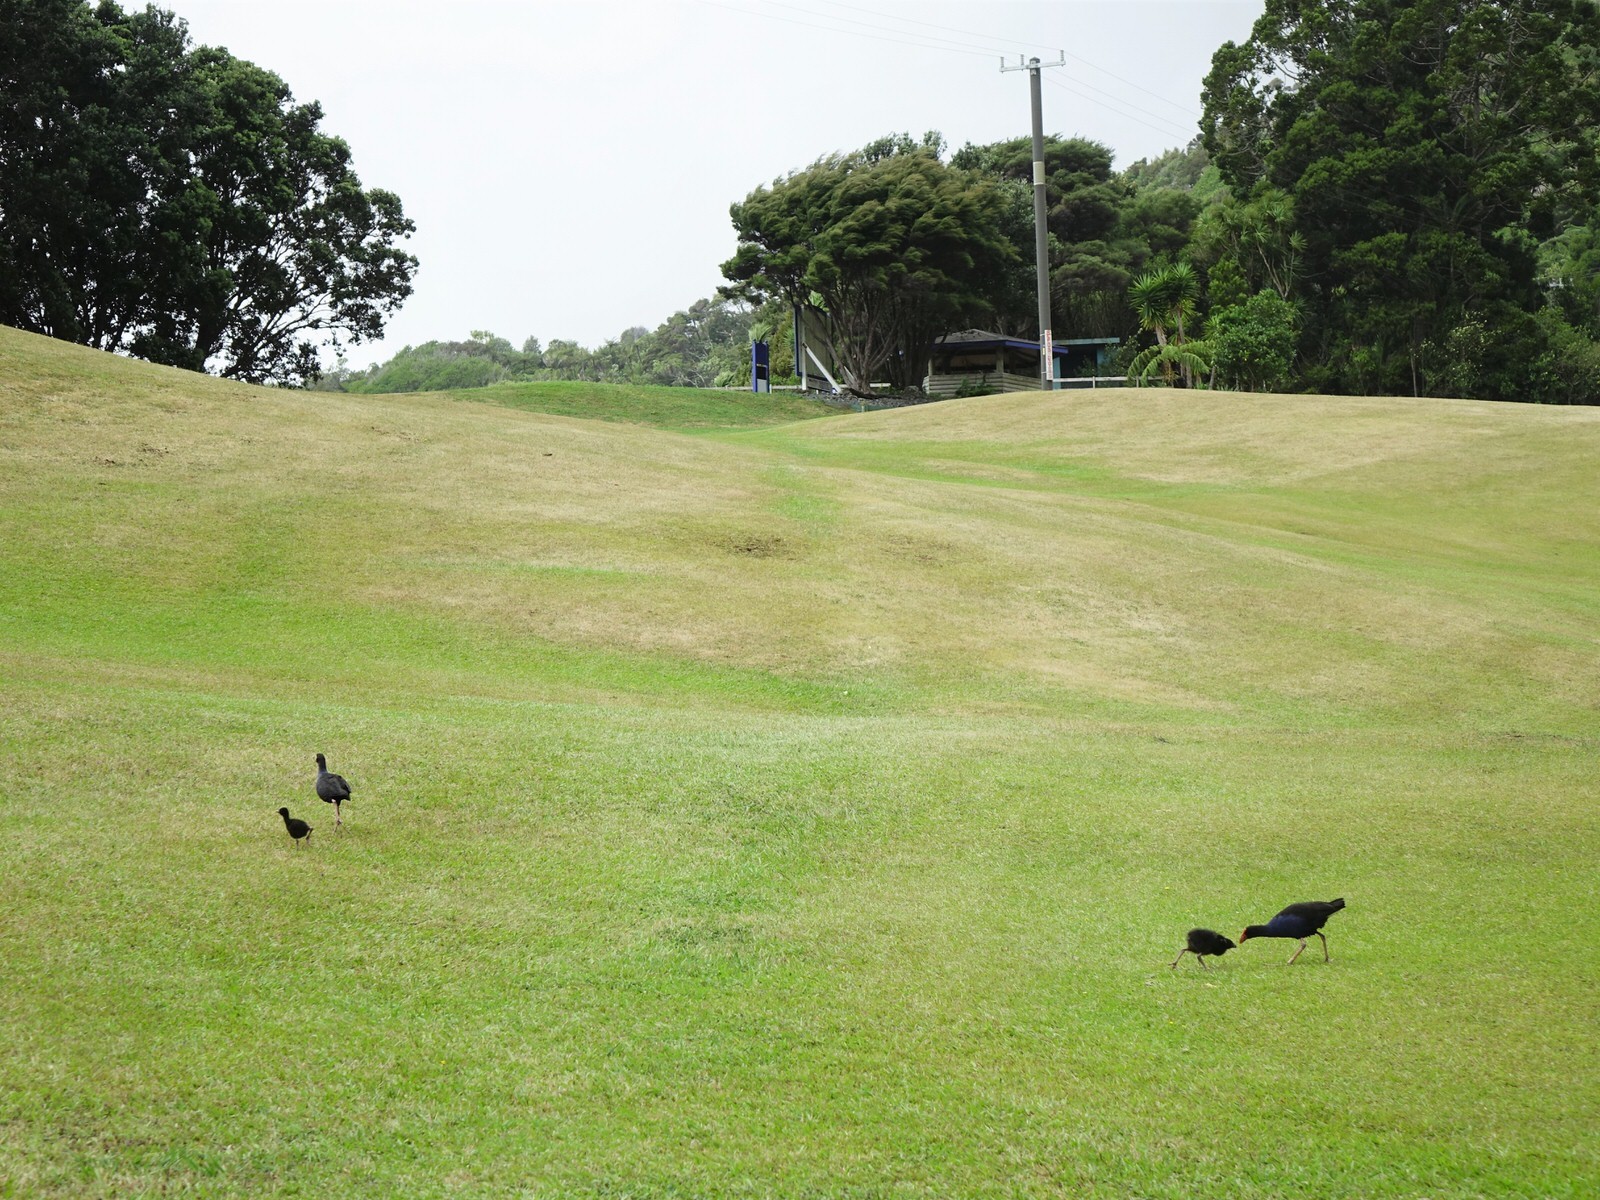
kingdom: Animalia
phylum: Chordata
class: Aves
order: Gruiformes
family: Rallidae
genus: Porphyrio
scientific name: Porphyrio melanotus
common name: Australasian swamphen
